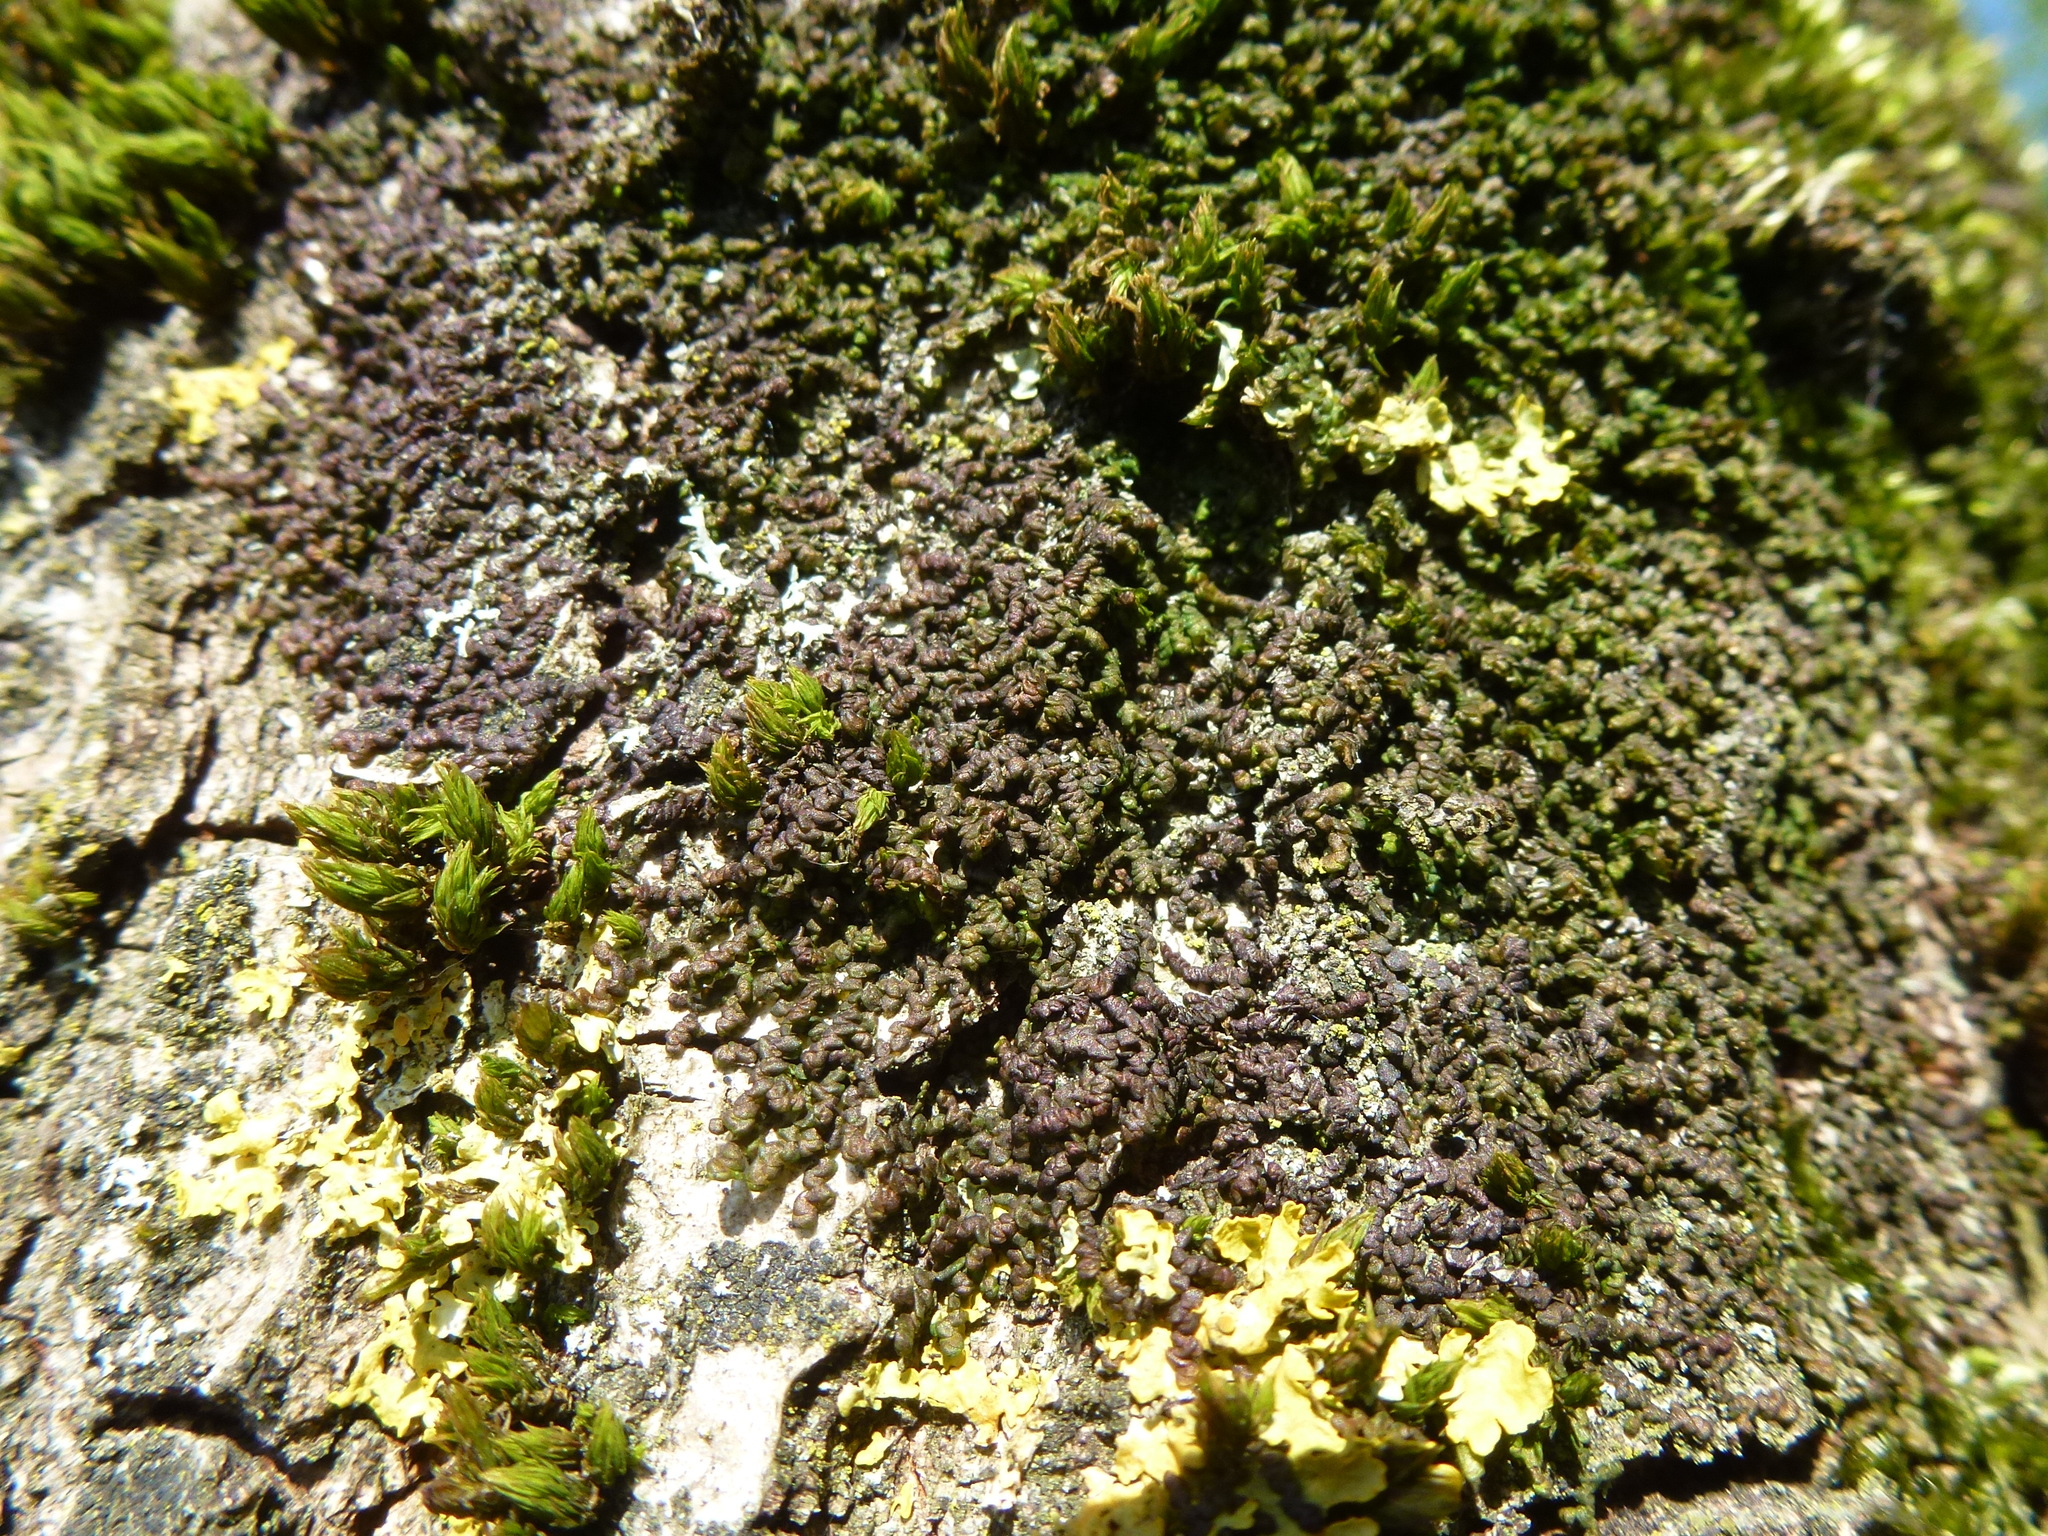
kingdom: Plantae
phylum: Marchantiophyta
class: Jungermanniopsida
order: Porellales
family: Frullaniaceae
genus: Frullania
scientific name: Frullania dilatata
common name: Dilated scalewort
